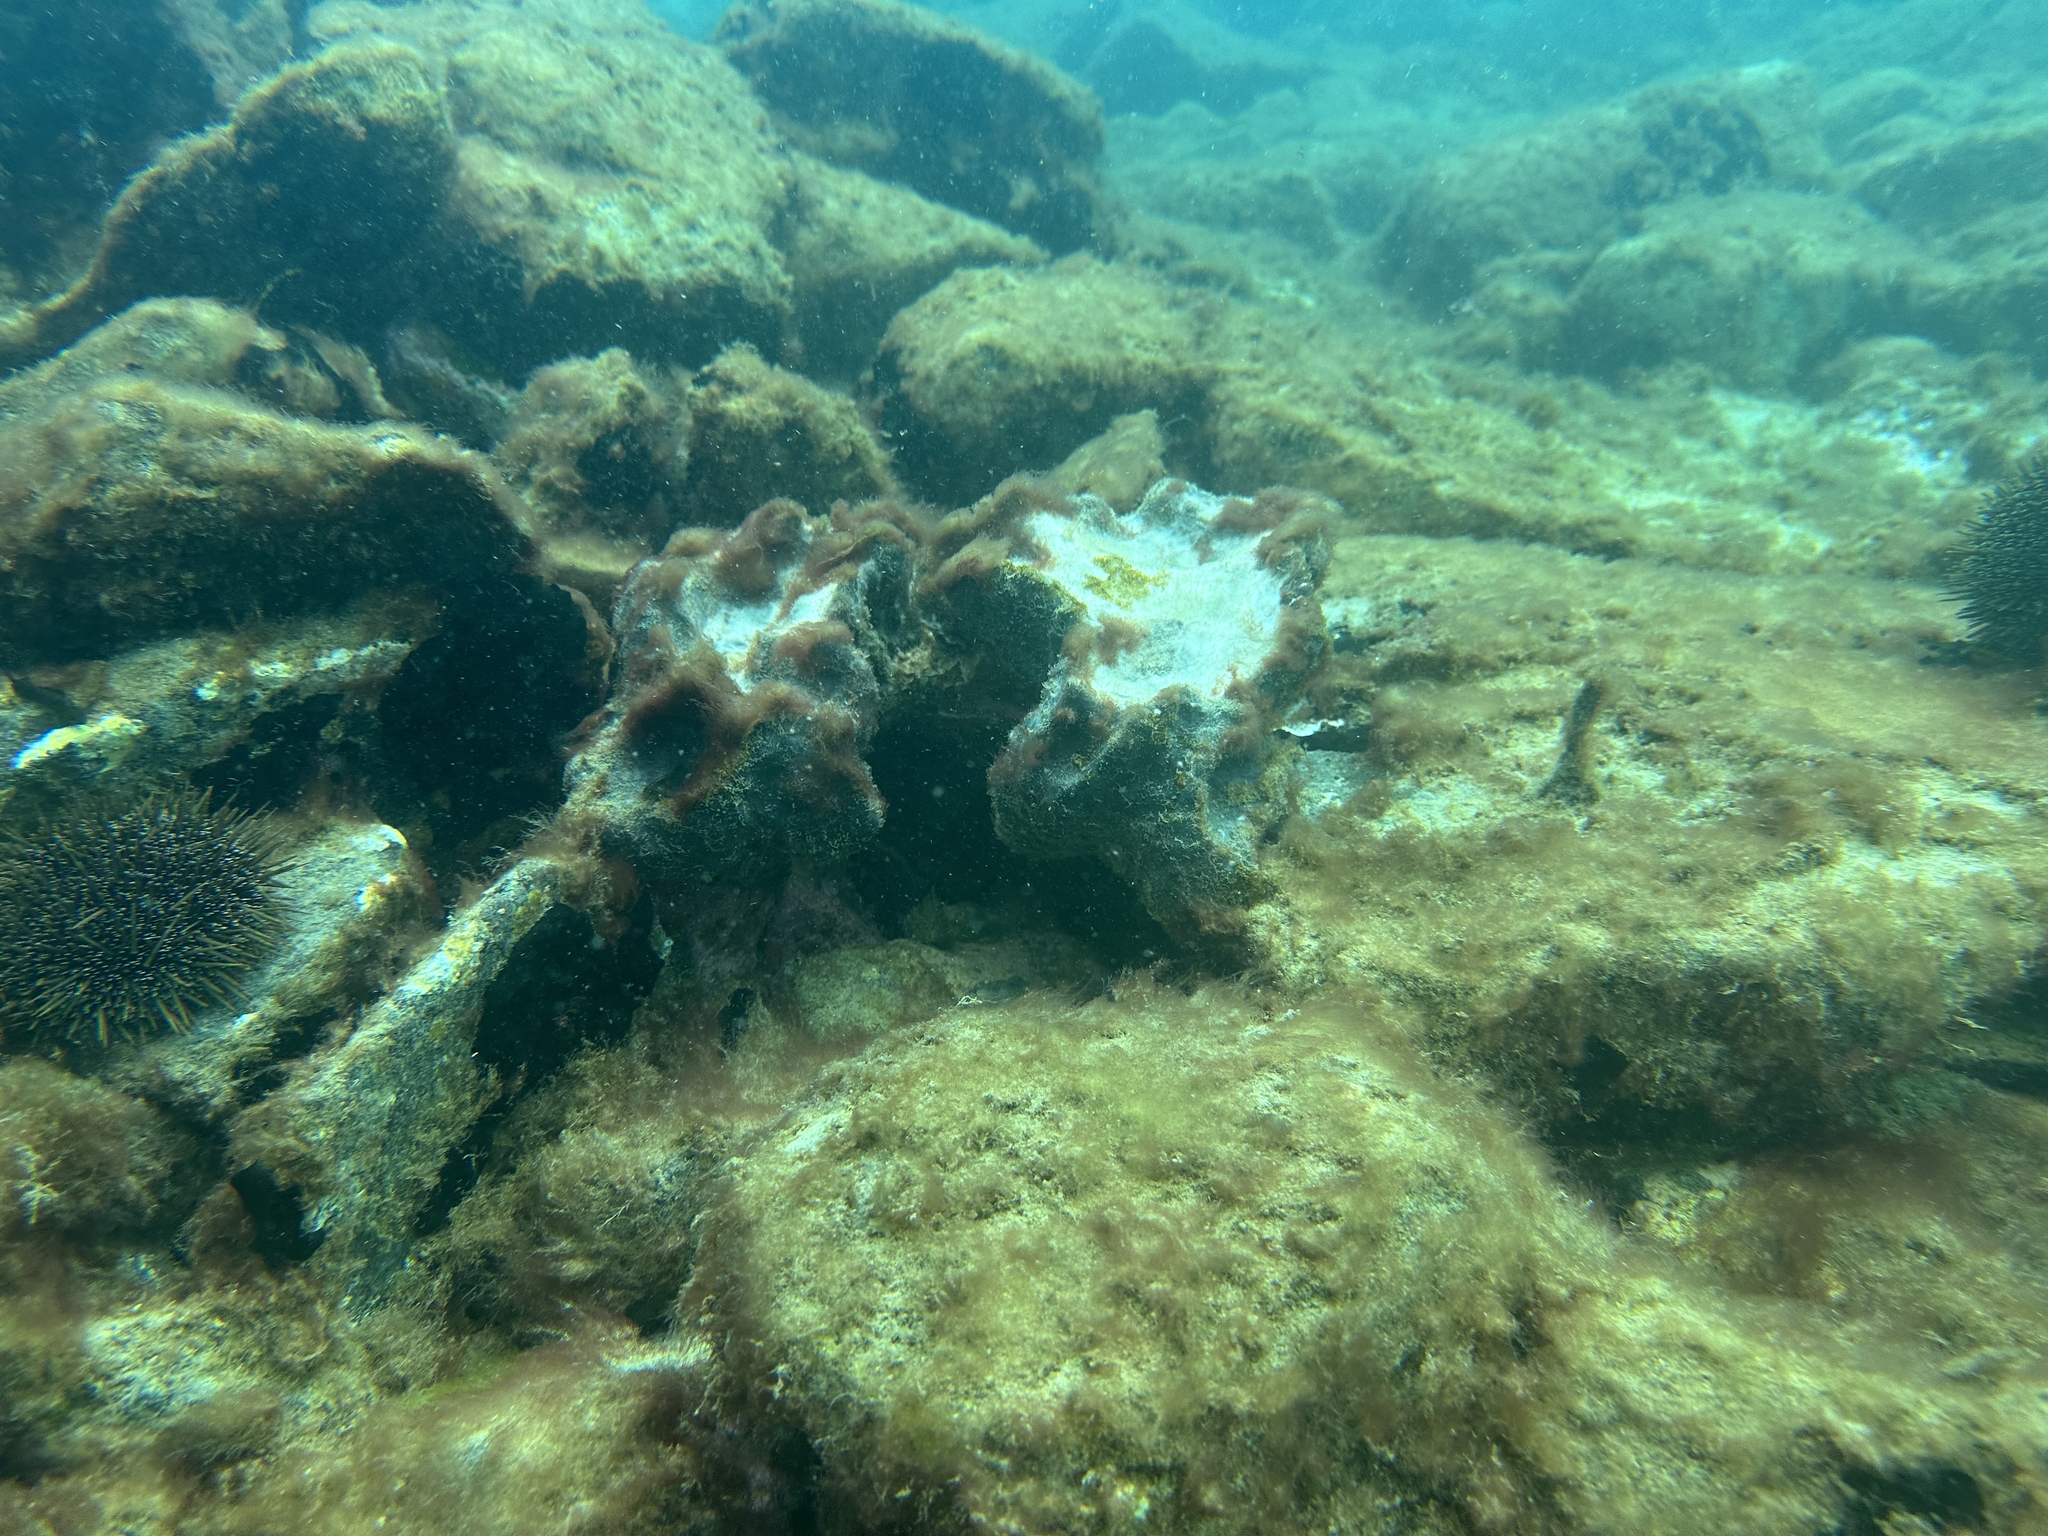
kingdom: Animalia
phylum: Porifera
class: Demospongiae
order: Tetractinellida
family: Ancorinidae
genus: Ecionemia
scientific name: Ecionemia alata
